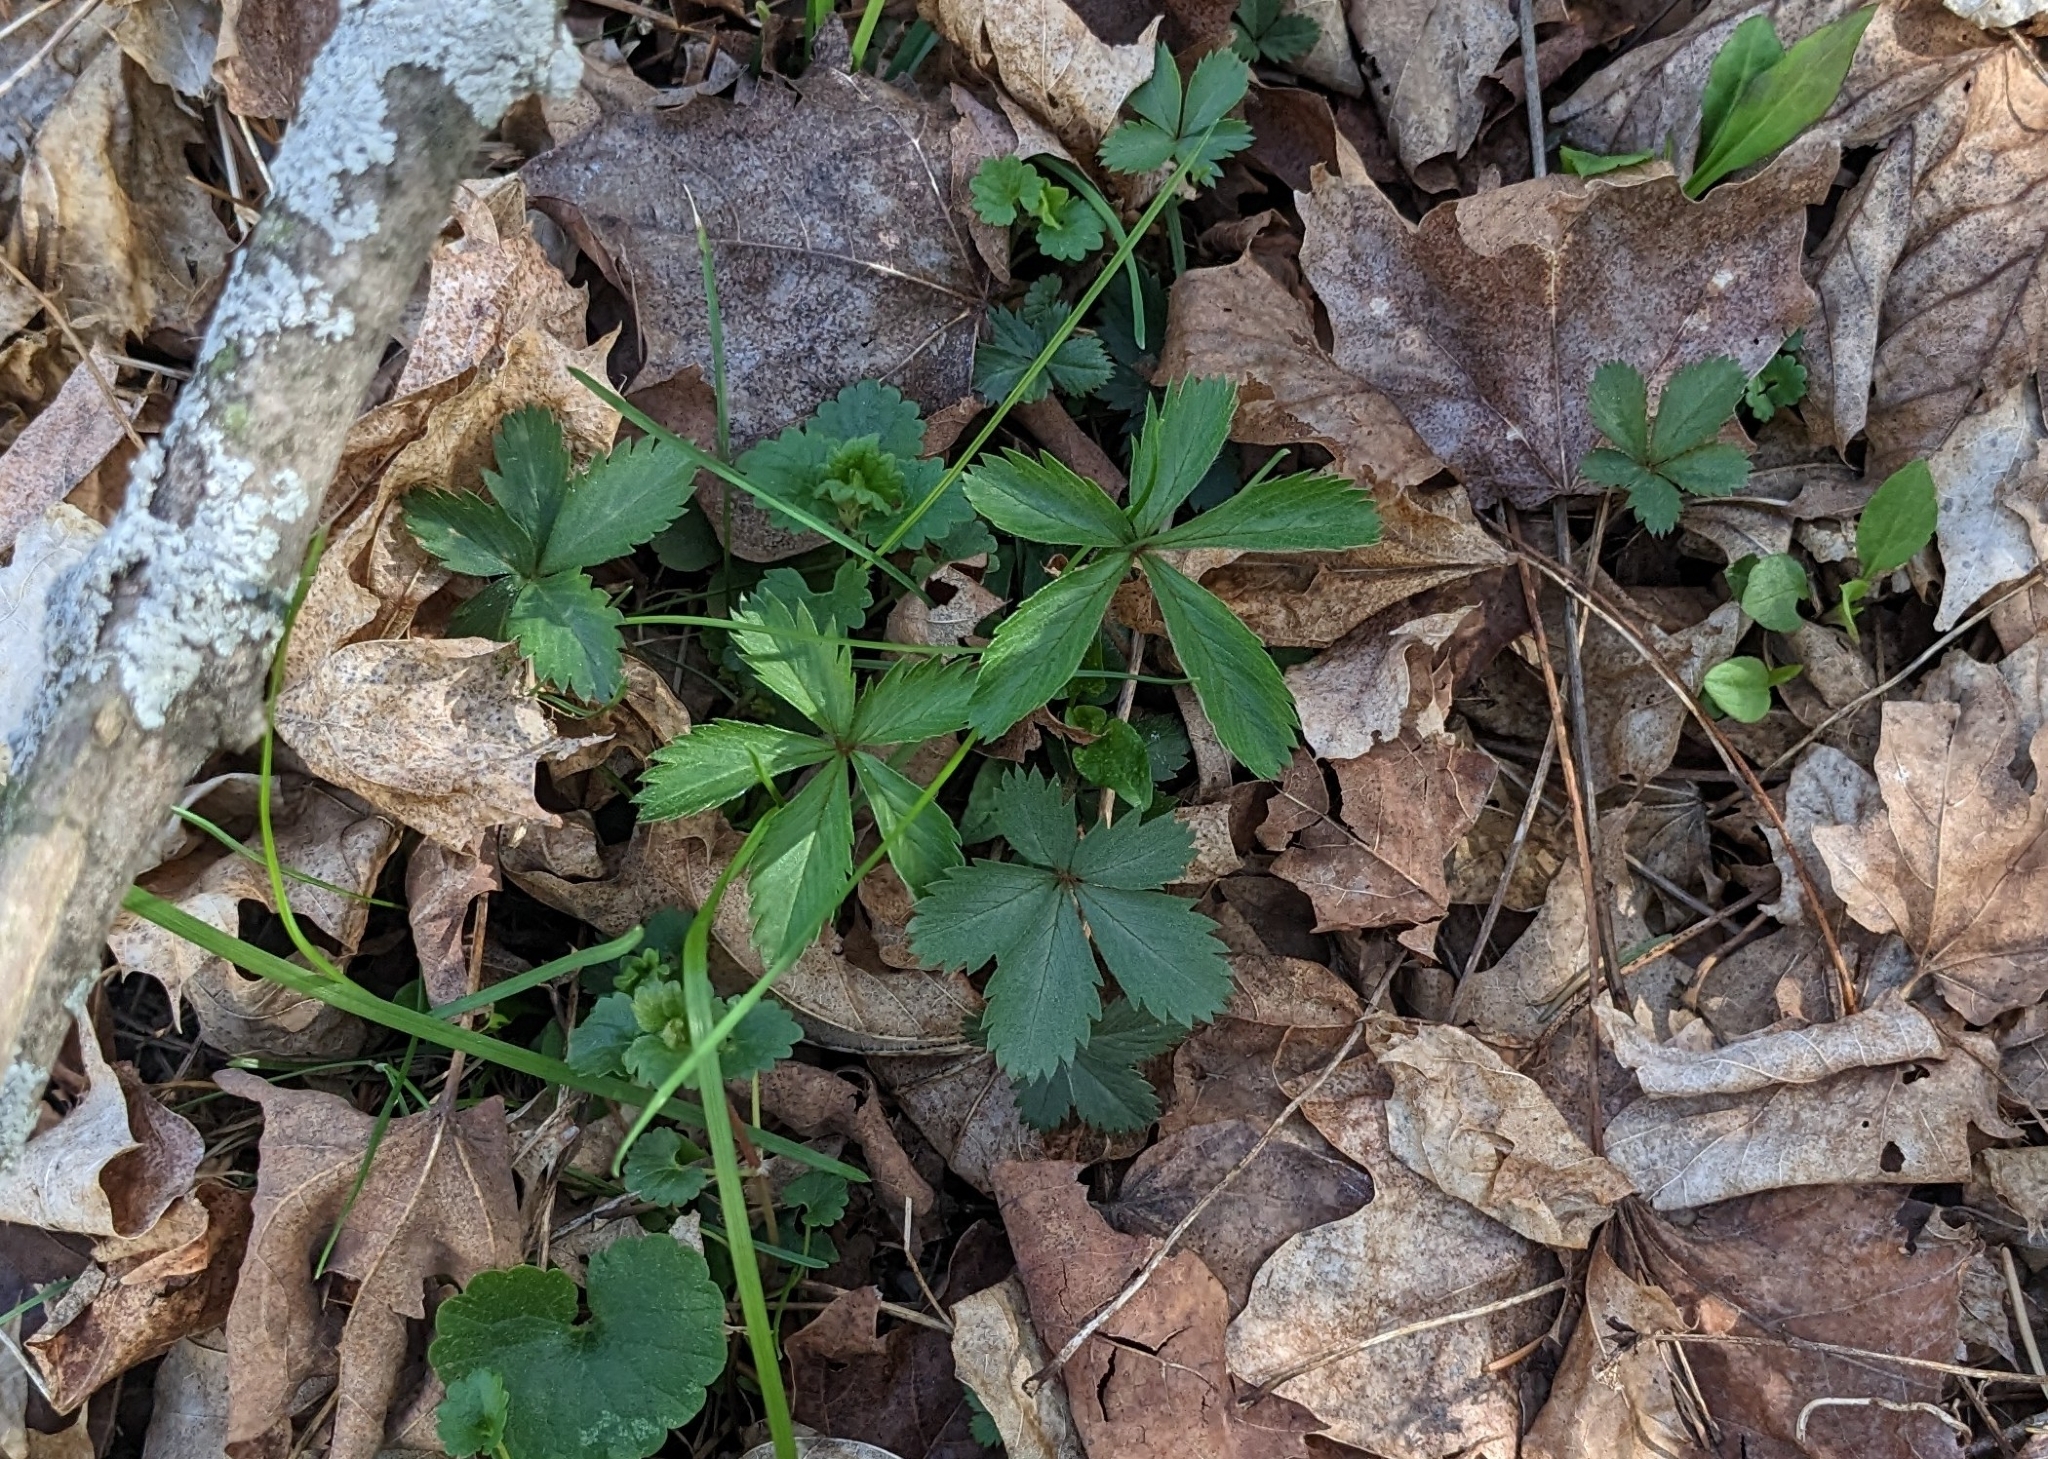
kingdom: Plantae
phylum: Tracheophyta
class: Magnoliopsida
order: Rosales
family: Rosaceae
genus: Potentilla
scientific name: Potentilla simplex
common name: Old field cinquefoil
